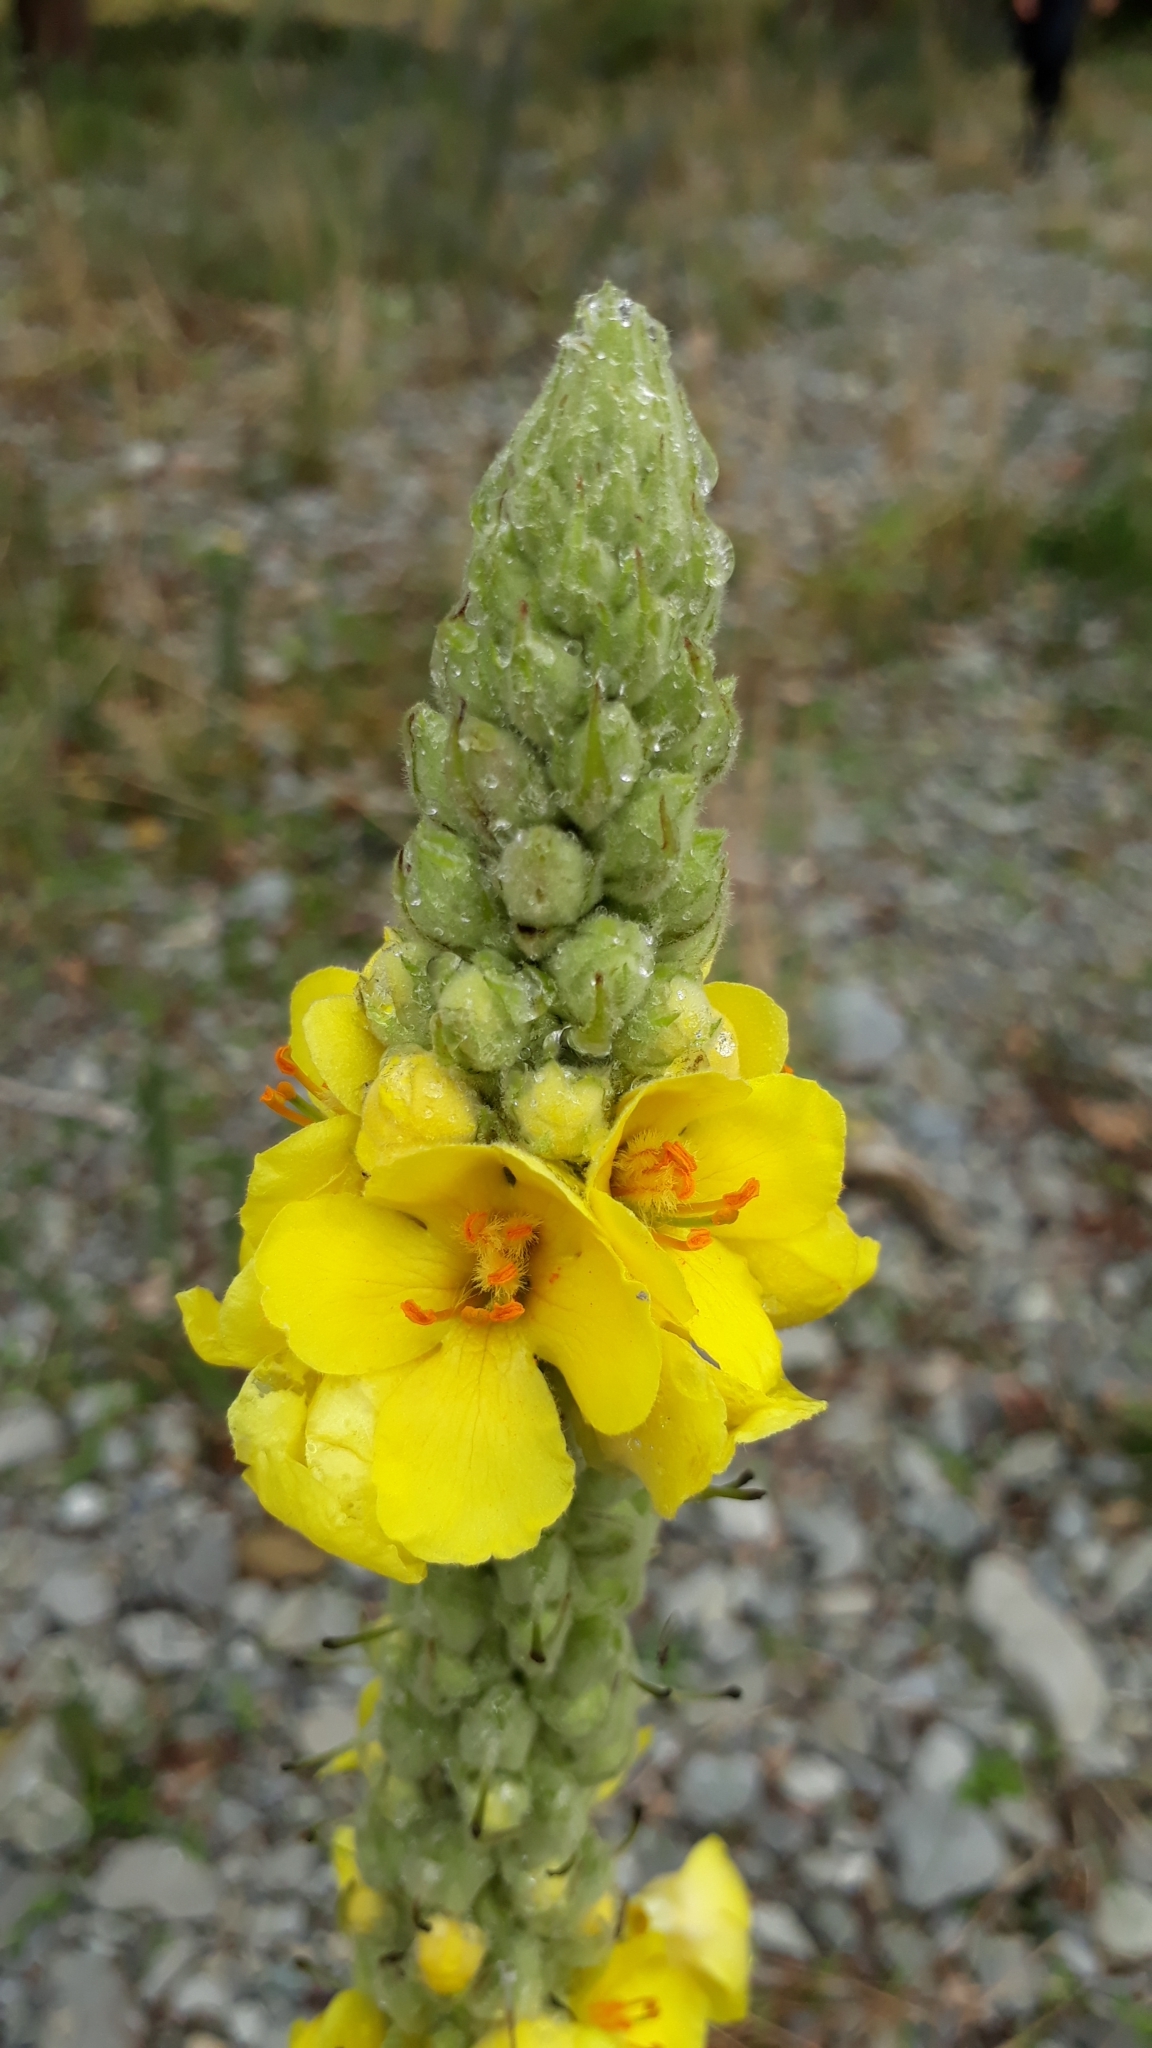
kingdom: Plantae
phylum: Tracheophyta
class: Magnoliopsida
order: Lamiales
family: Scrophulariaceae
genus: Verbascum
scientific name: Verbascum thapsus
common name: Common mullein
